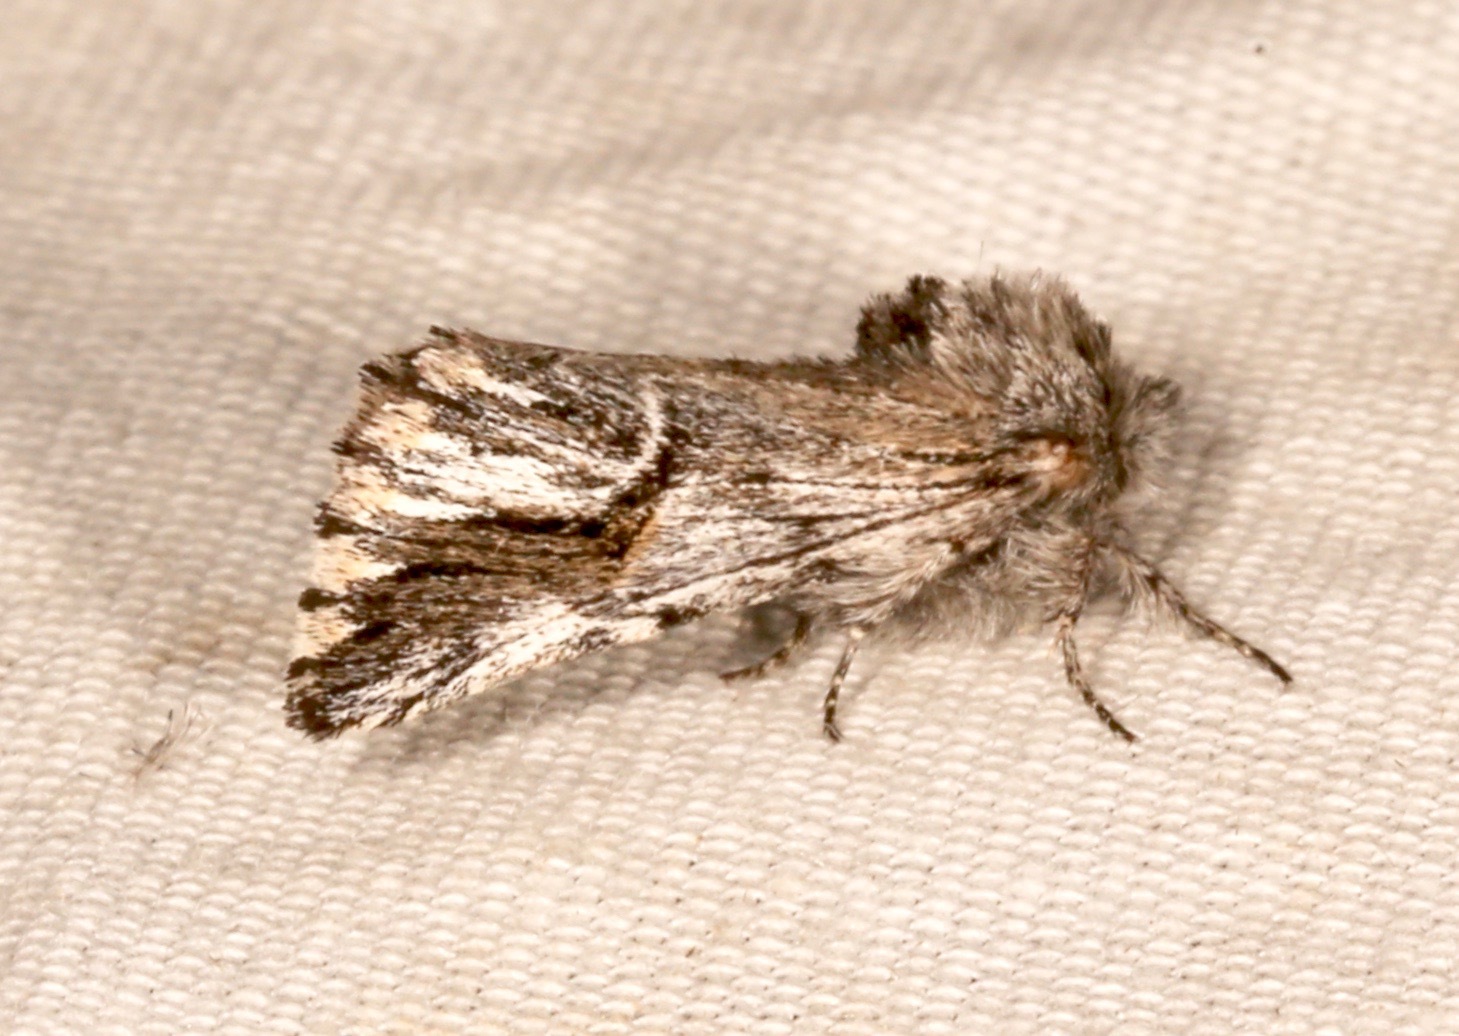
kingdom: Animalia
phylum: Arthropoda
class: Insecta
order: Lepidoptera
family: Notodontidae
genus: Ursia
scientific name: Ursia noctuiformis
